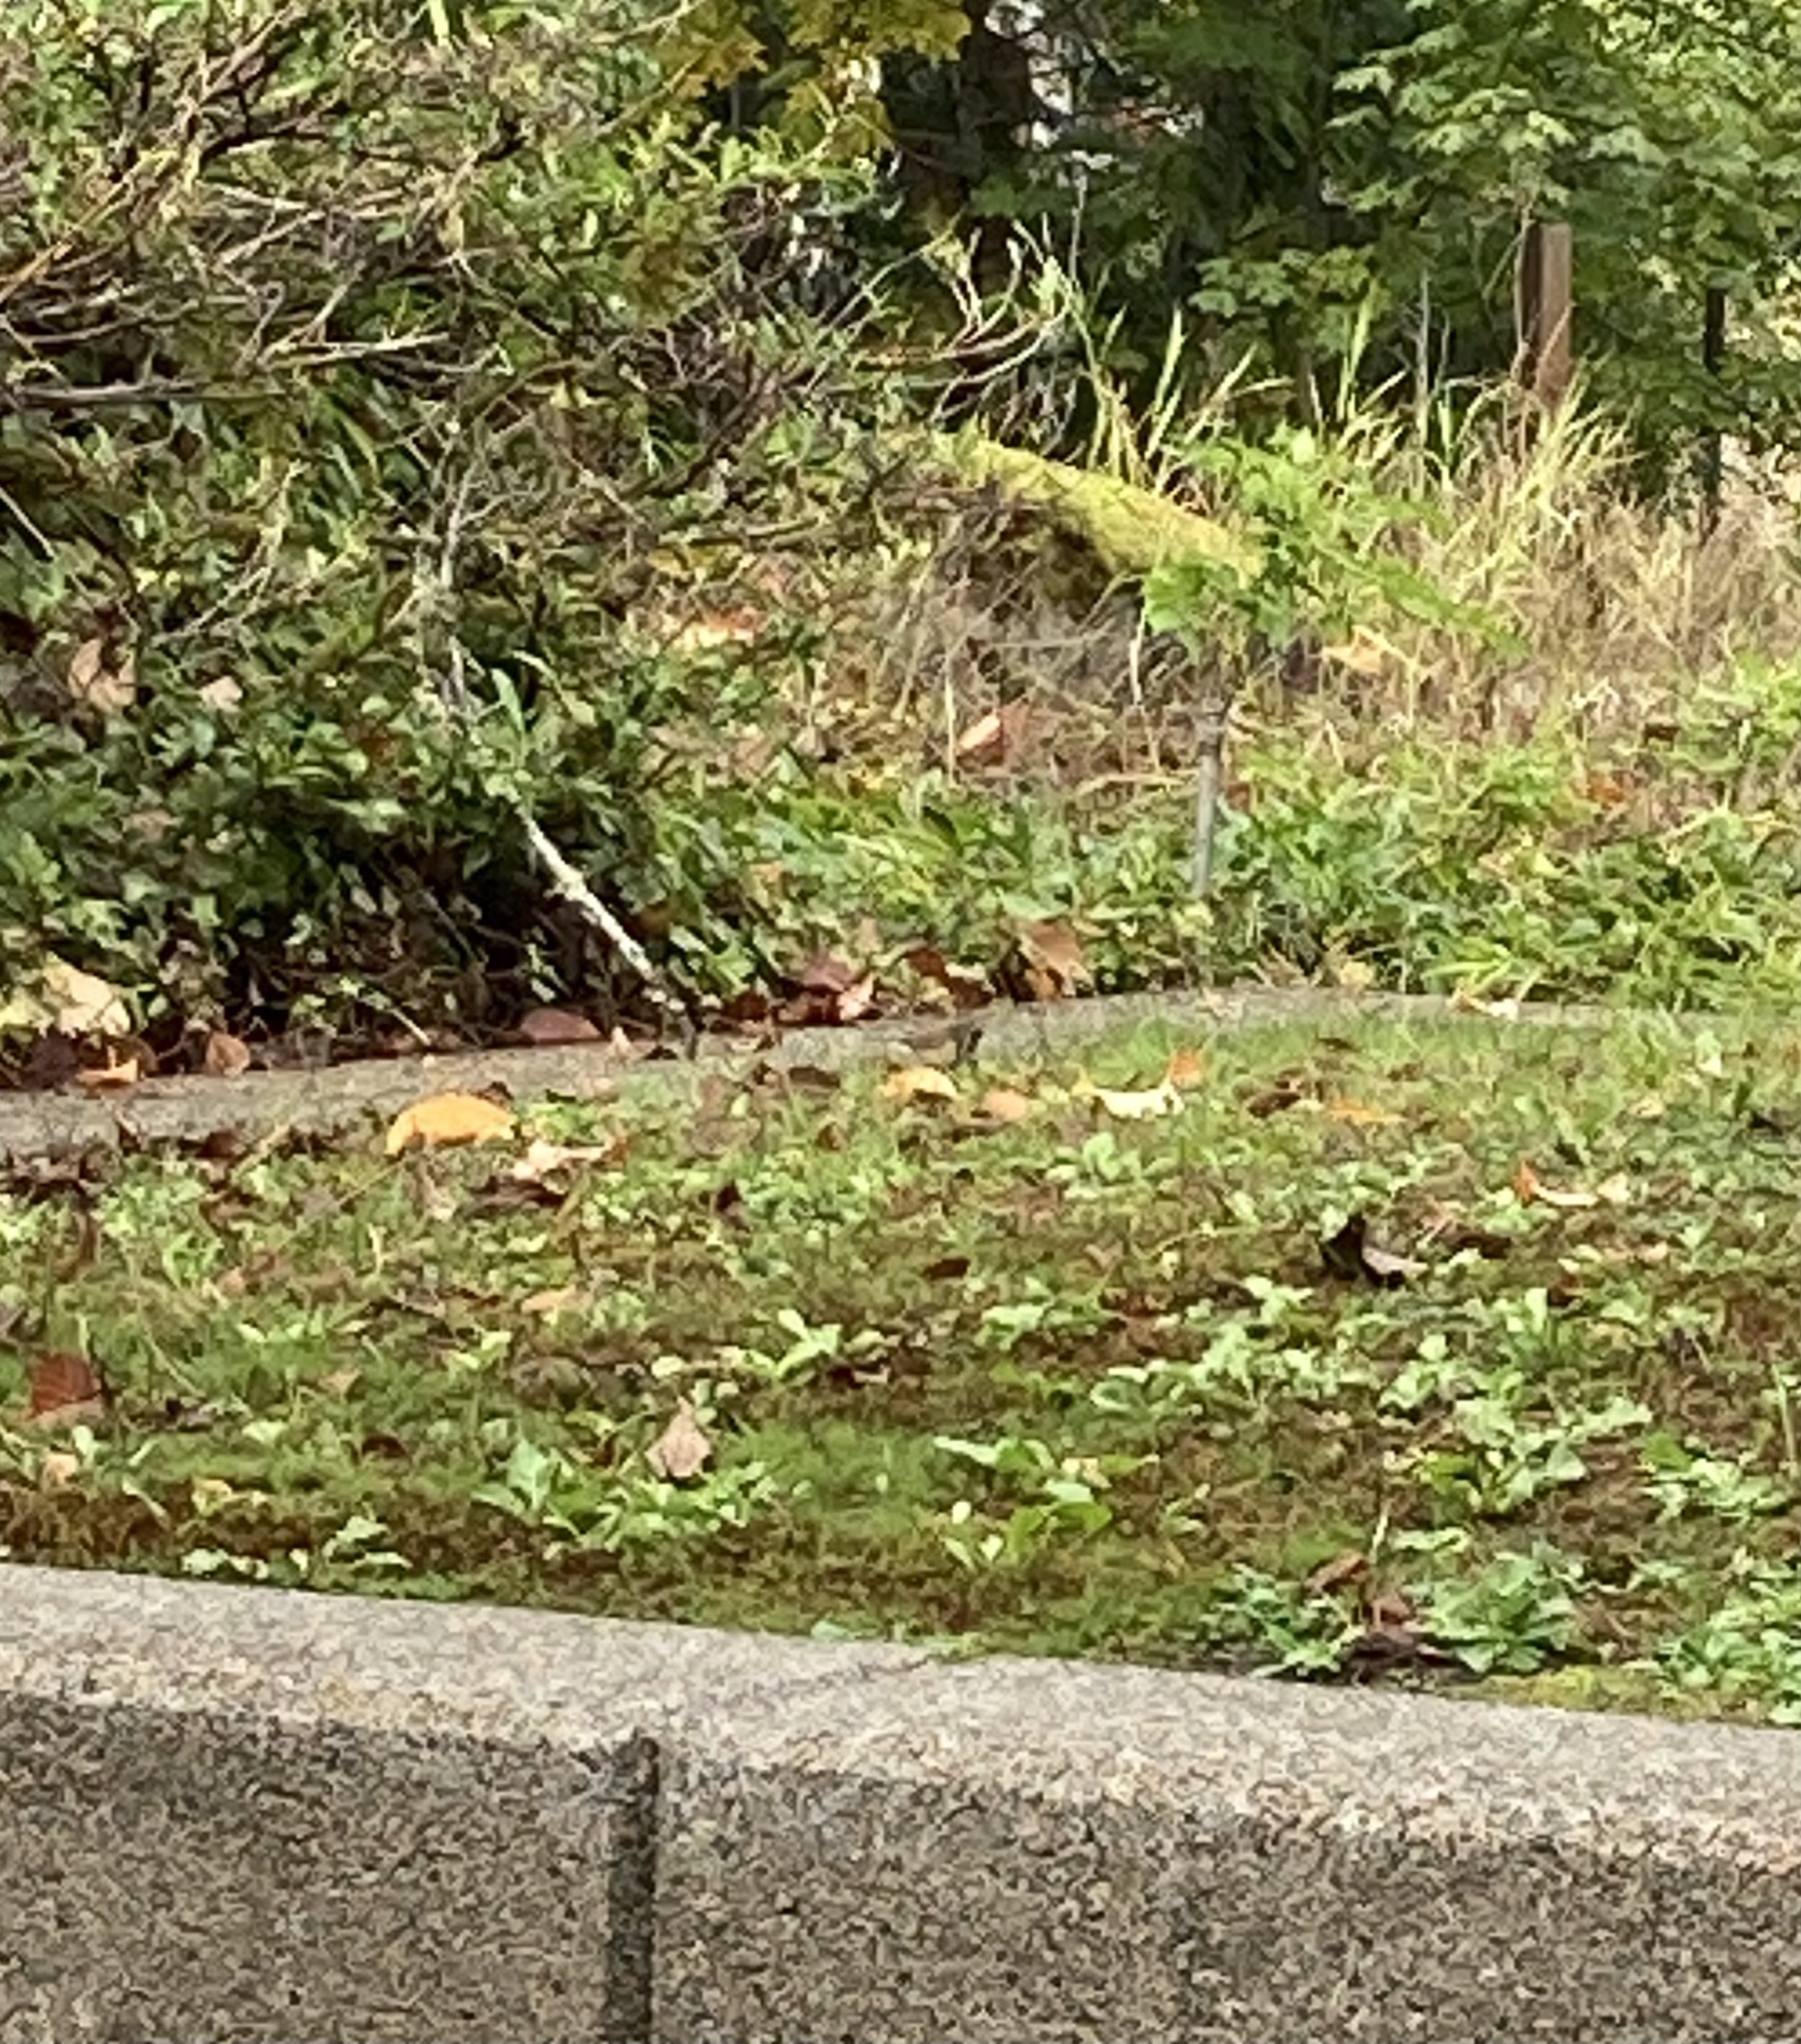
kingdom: Animalia
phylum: Chordata
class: Aves
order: Passeriformes
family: Passerellidae
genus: Junco
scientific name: Junco hyemalis
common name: Dark-eyed junco
